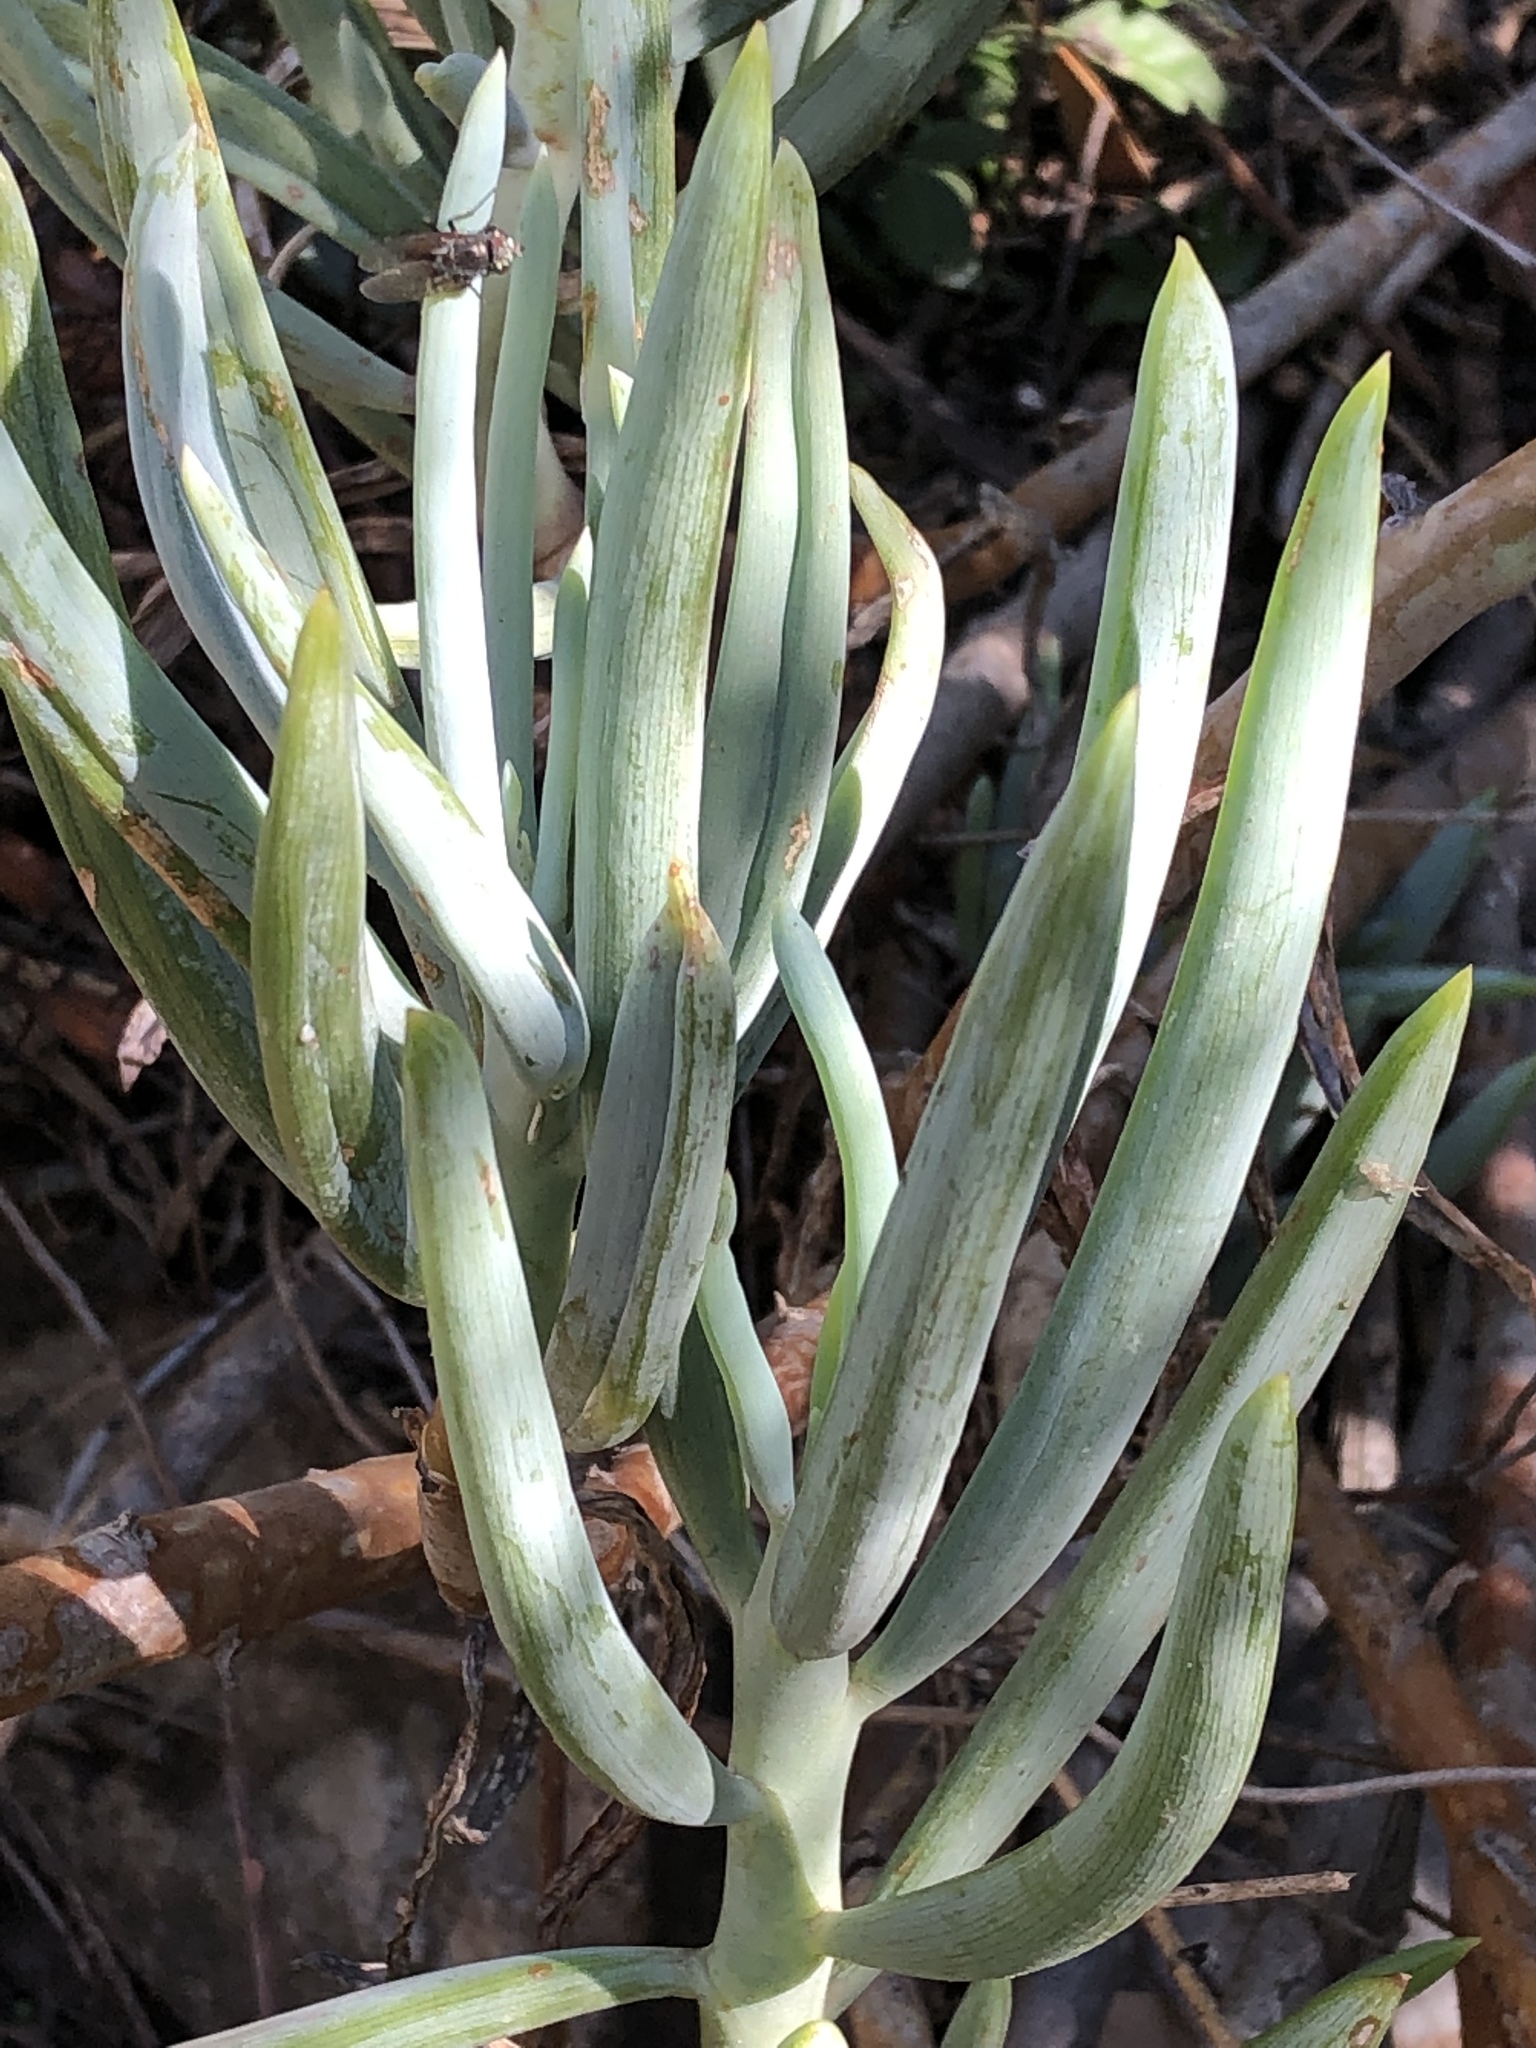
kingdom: Plantae
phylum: Tracheophyta
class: Magnoliopsida
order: Asterales
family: Asteraceae
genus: Curio
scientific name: Curio ficoides
